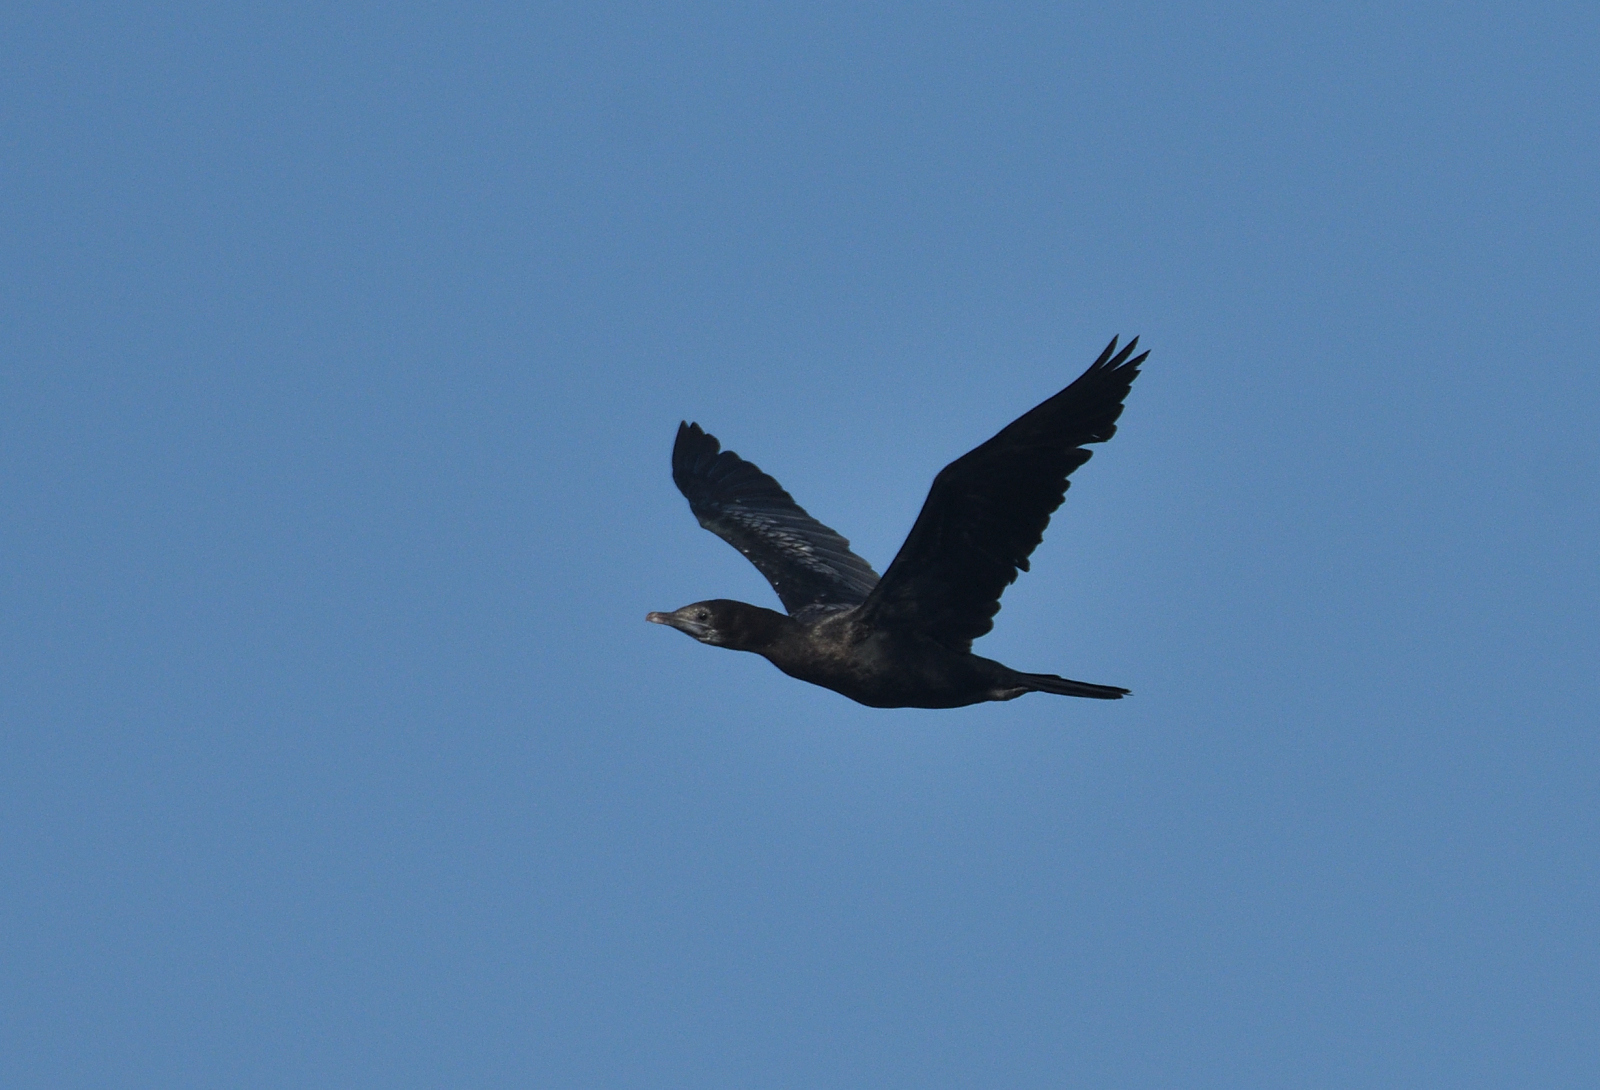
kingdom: Animalia
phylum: Chordata
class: Aves
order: Suliformes
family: Phalacrocoracidae
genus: Microcarbo
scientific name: Microcarbo niger
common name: Little cormorant
